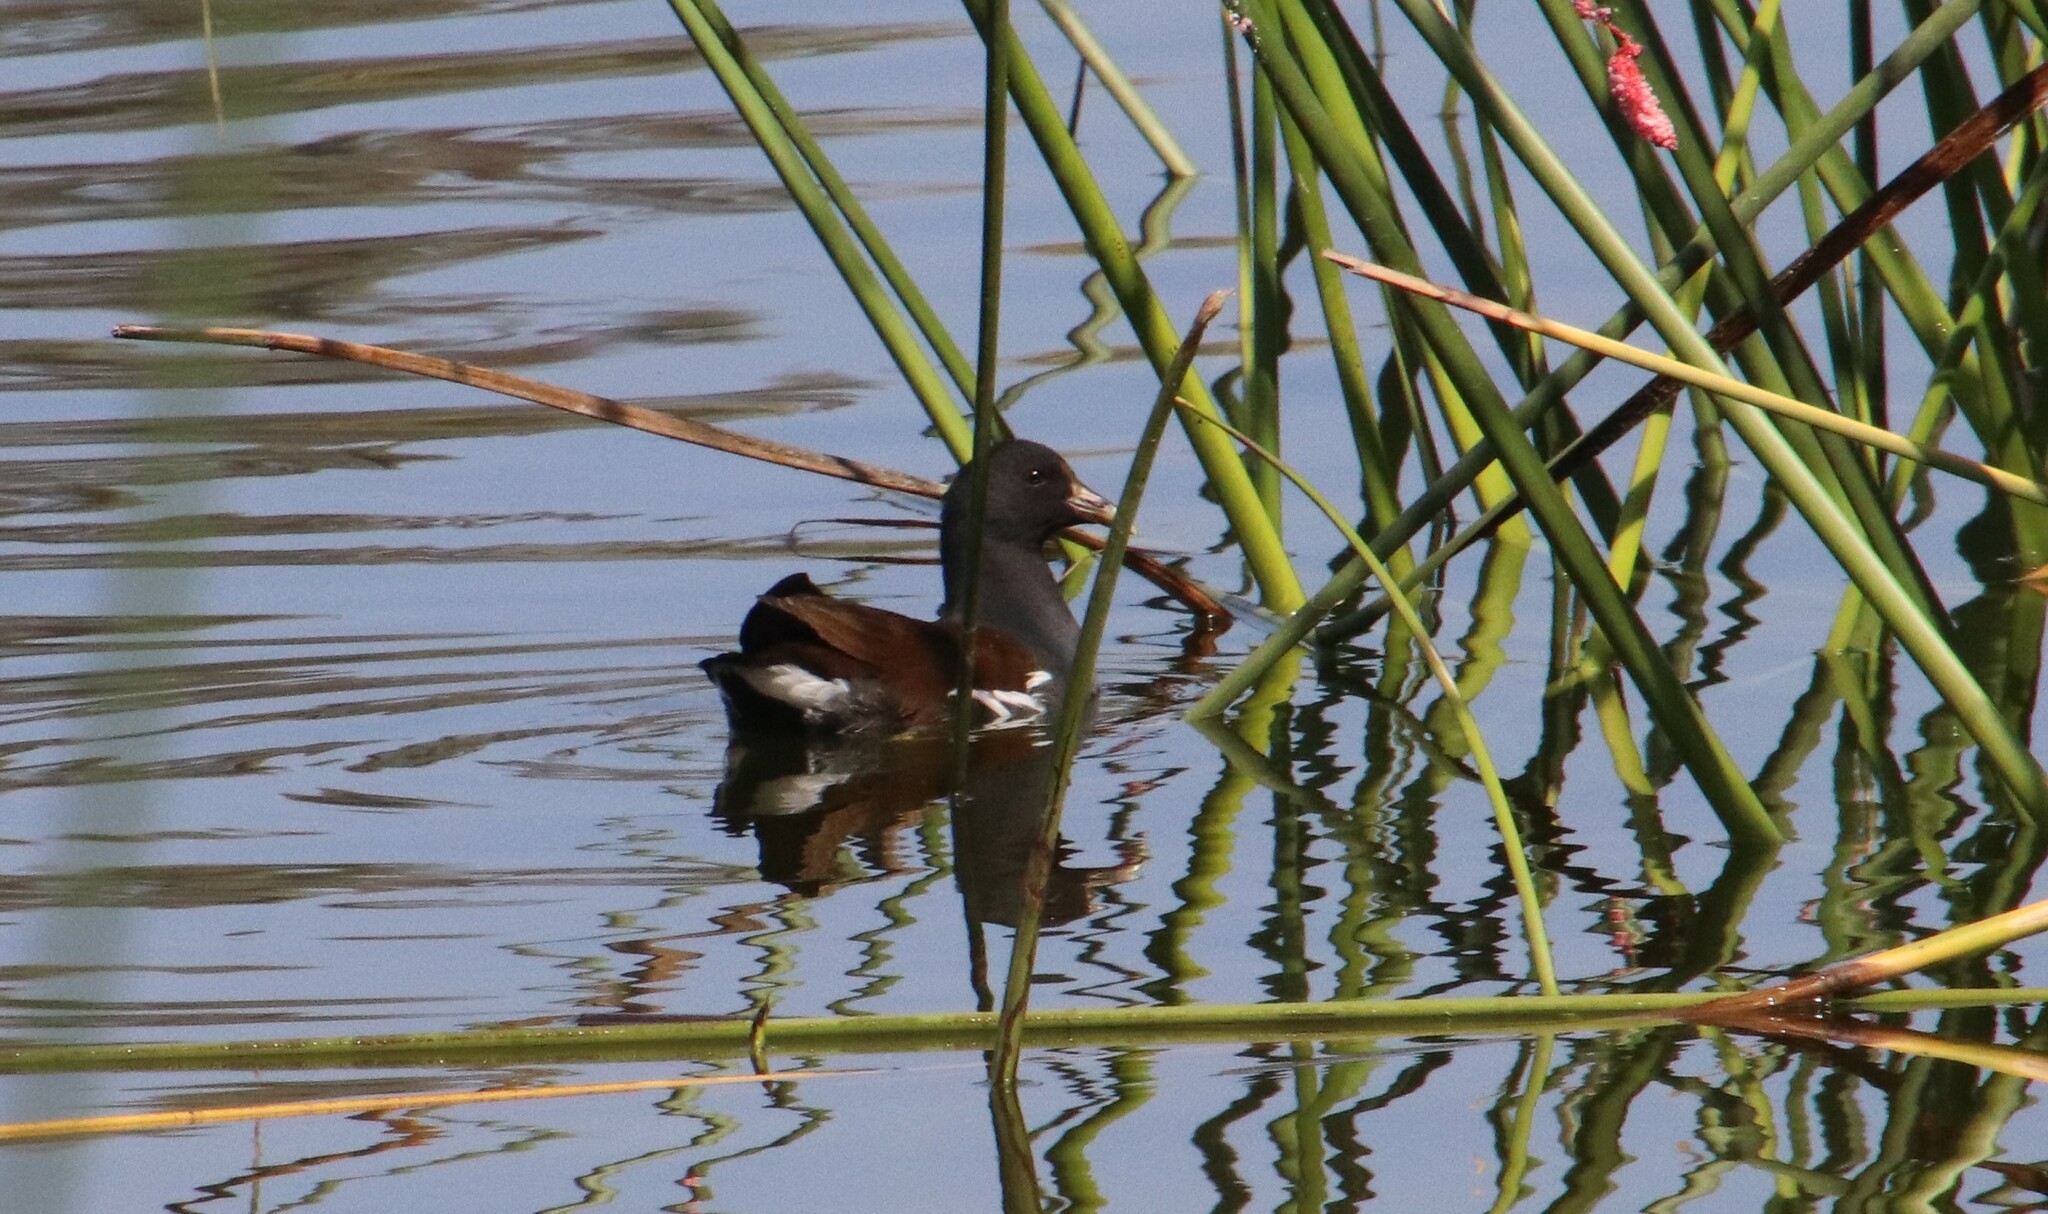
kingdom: Animalia
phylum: Chordata
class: Aves
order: Gruiformes
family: Rallidae
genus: Gallinula
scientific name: Gallinula chloropus
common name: Common moorhen
